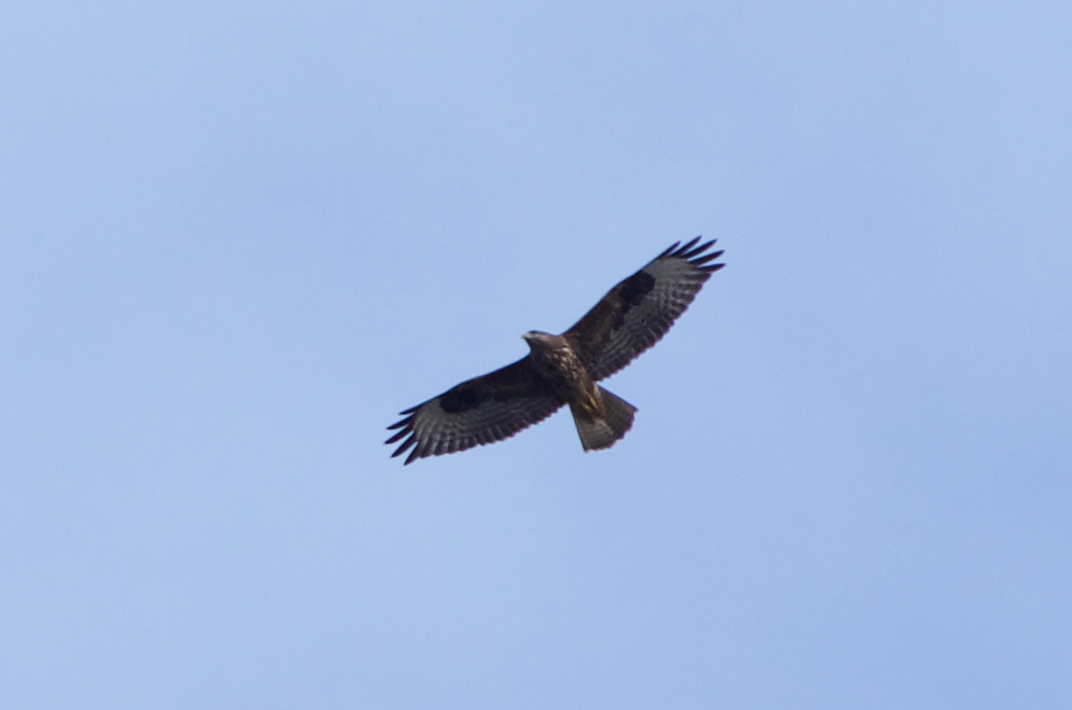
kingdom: Animalia
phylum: Chordata
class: Aves
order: Accipitriformes
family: Accipitridae
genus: Buteo
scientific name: Buteo buteo
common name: Common buzzard
